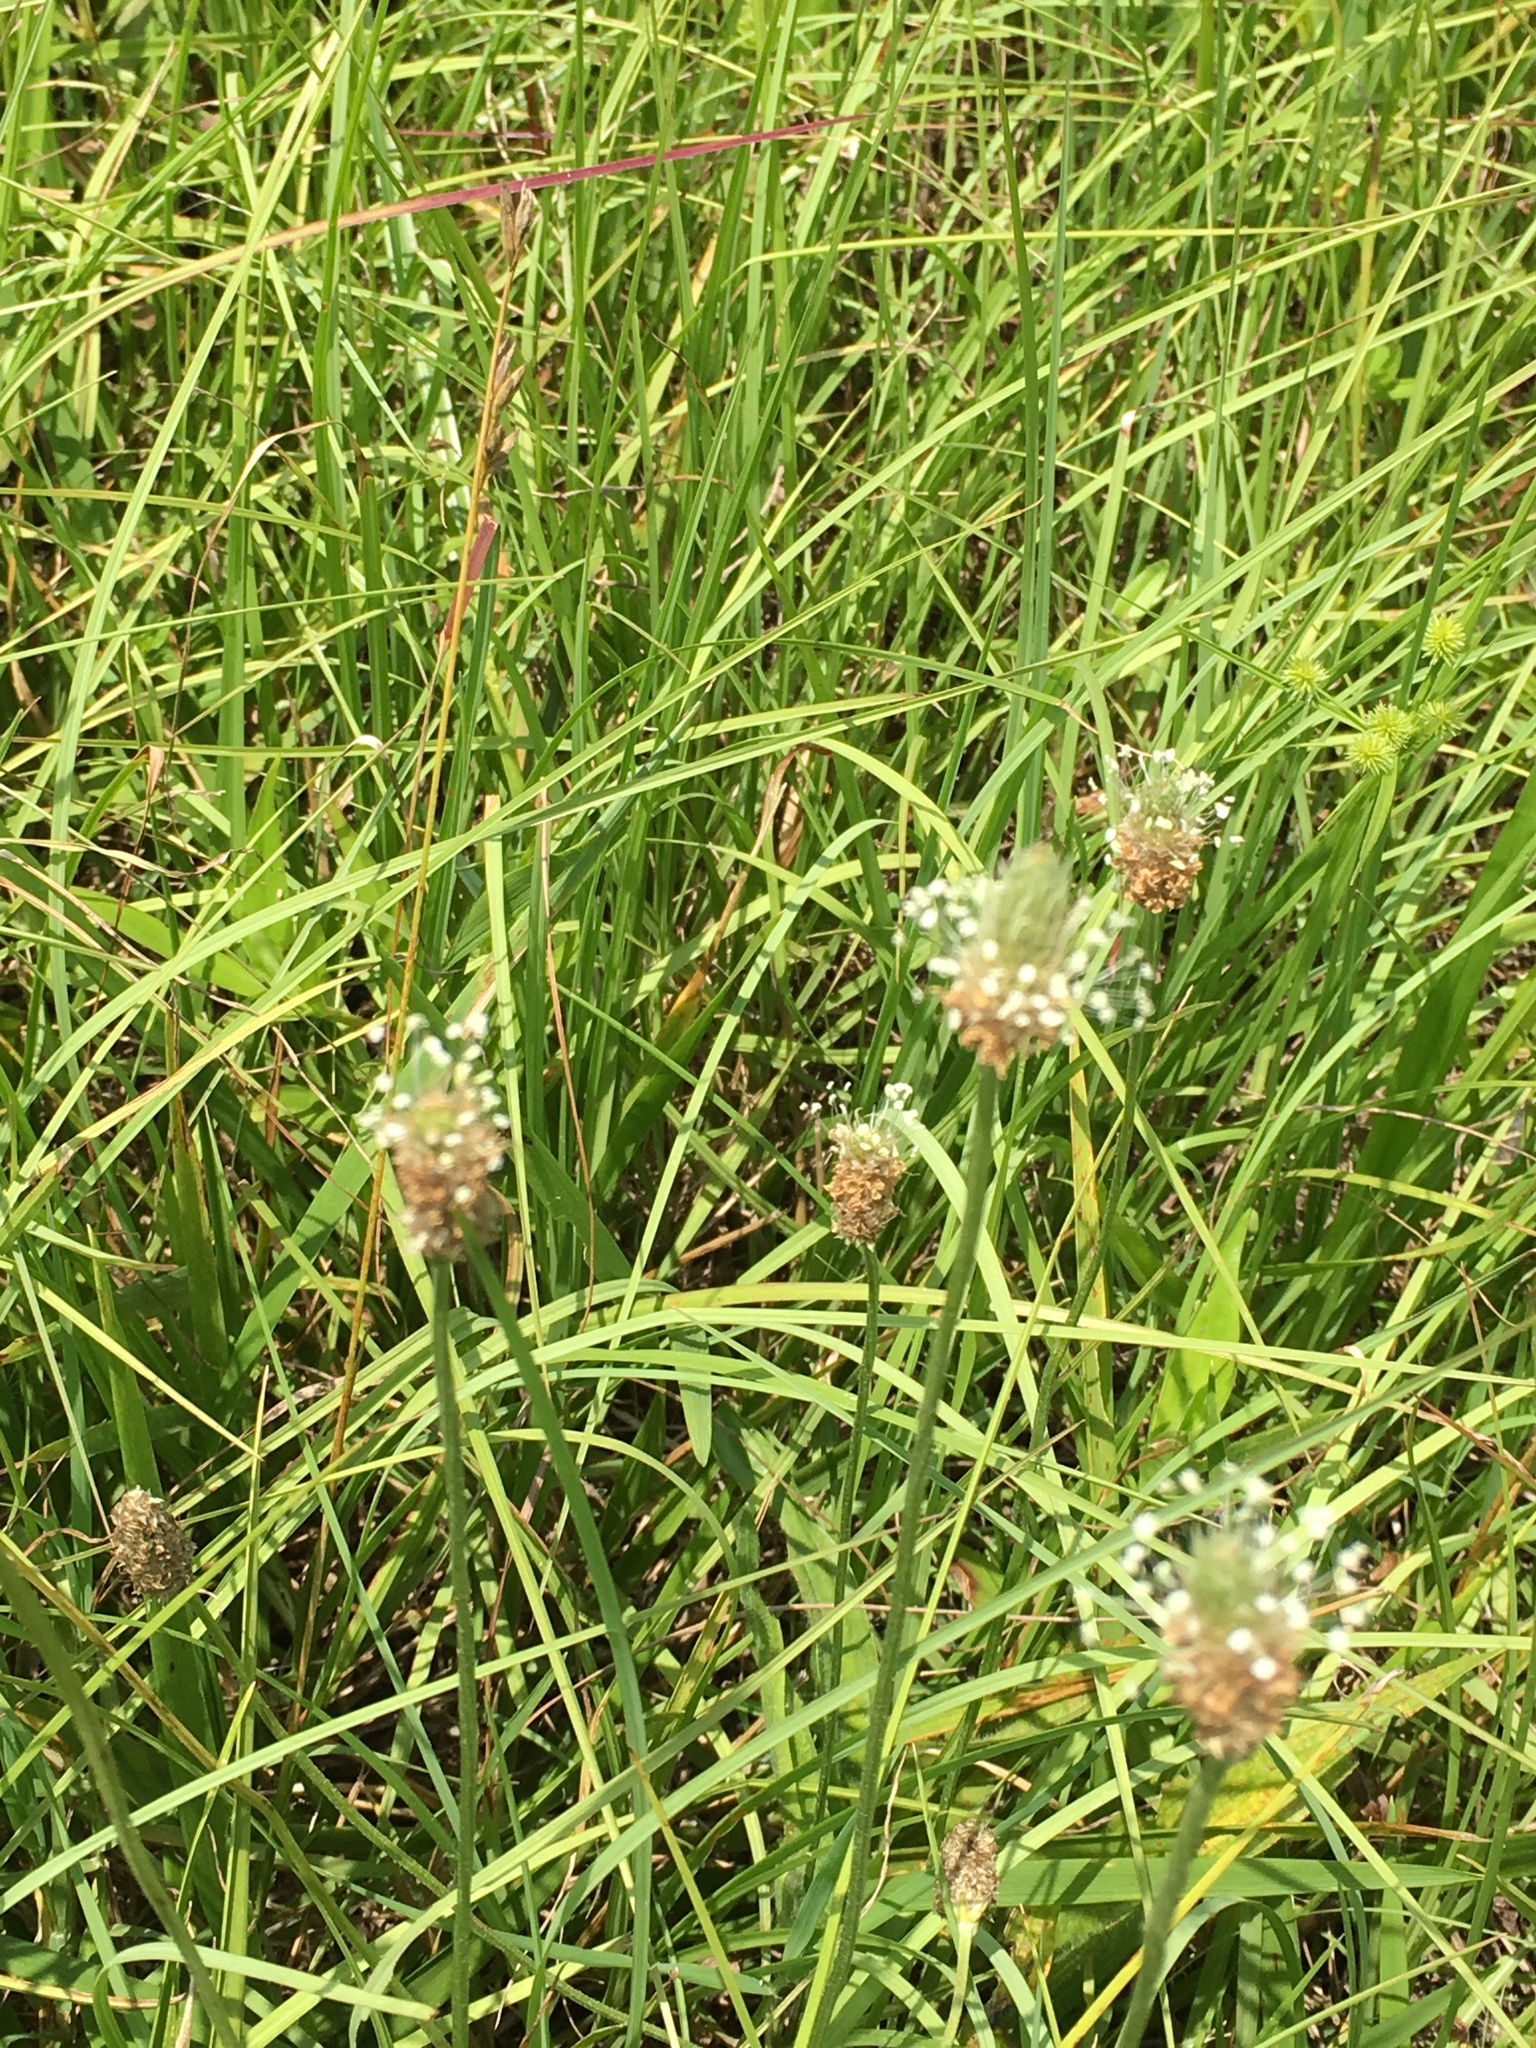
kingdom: Plantae
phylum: Tracheophyta
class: Magnoliopsida
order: Lamiales
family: Plantaginaceae
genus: Plantago
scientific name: Plantago lanceolata
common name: Ribwort plantain
